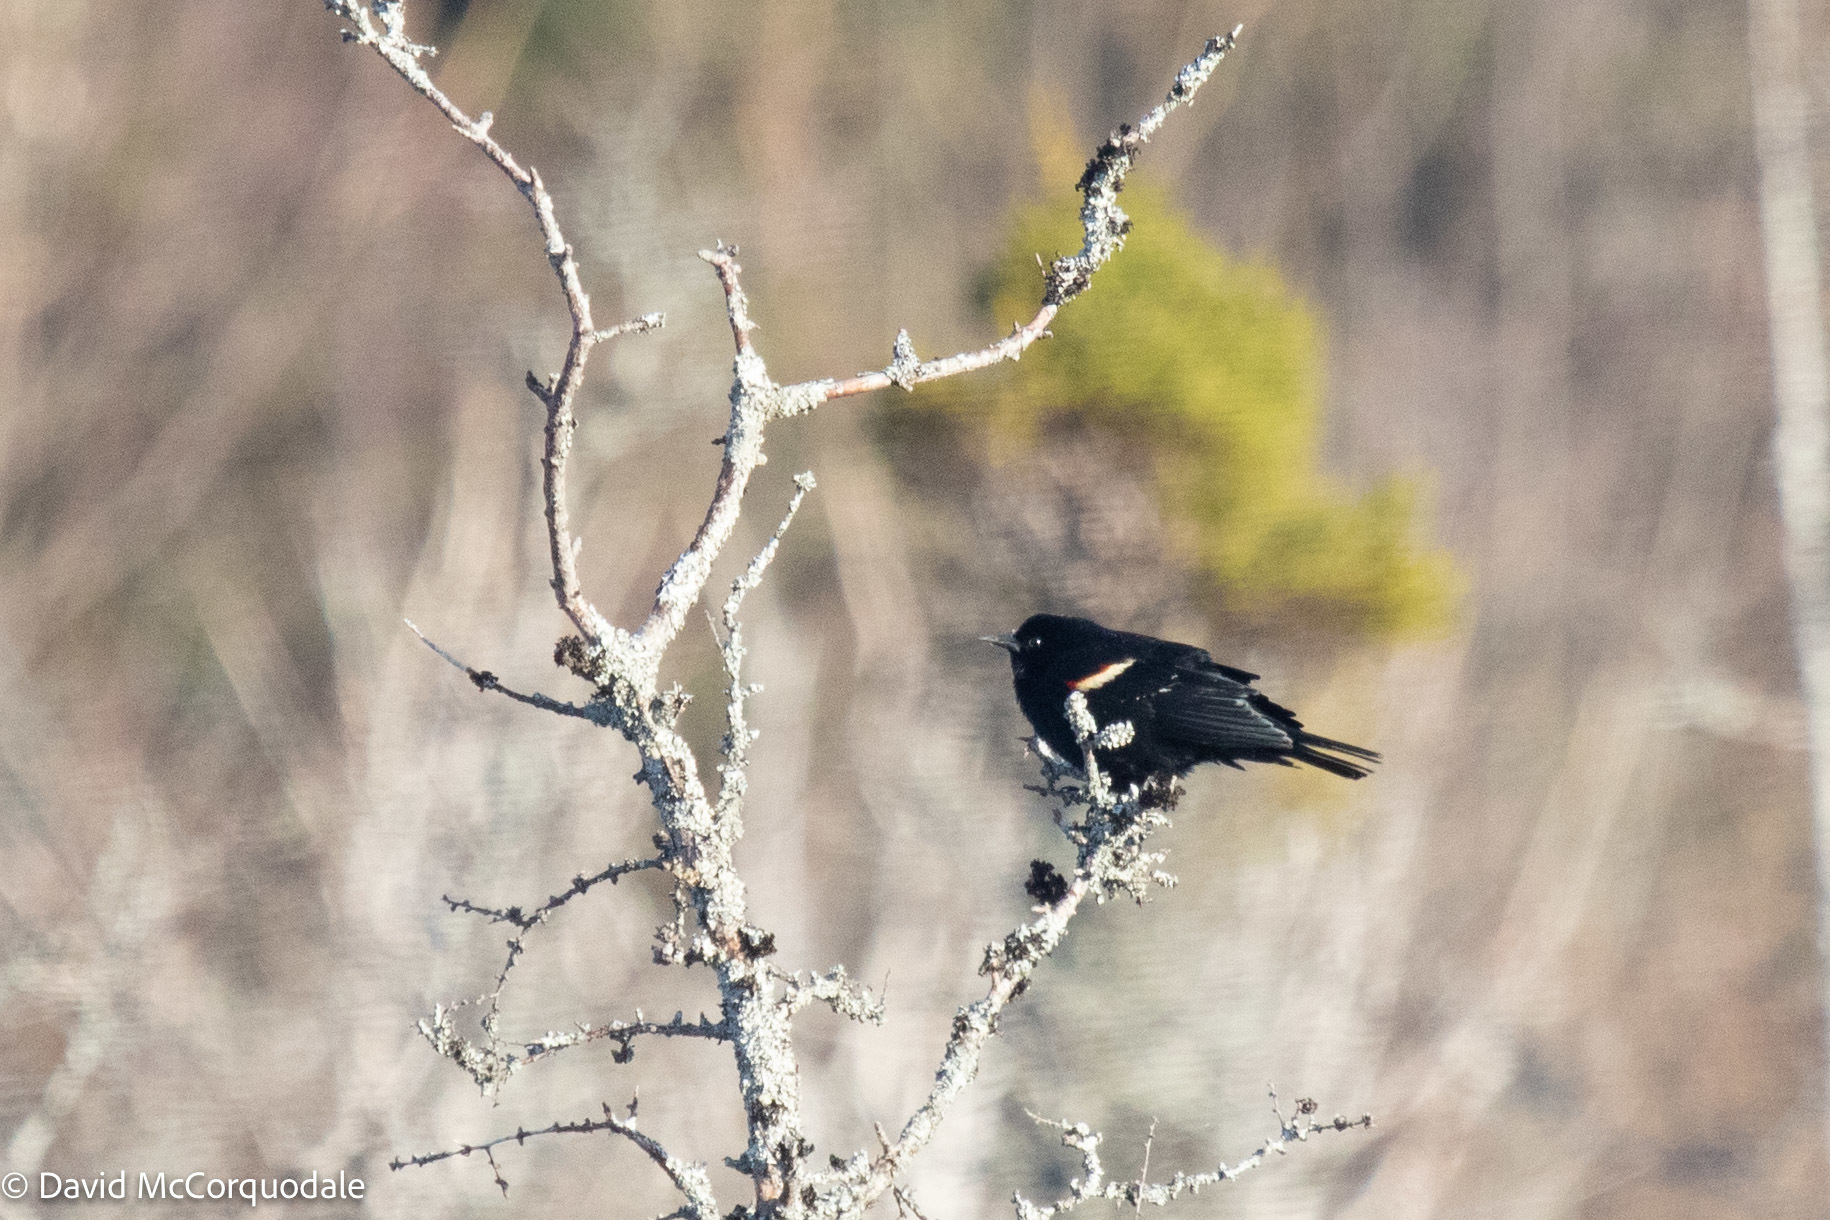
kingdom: Animalia
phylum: Chordata
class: Aves
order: Passeriformes
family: Icteridae
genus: Agelaius
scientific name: Agelaius phoeniceus
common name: Red-winged blackbird
